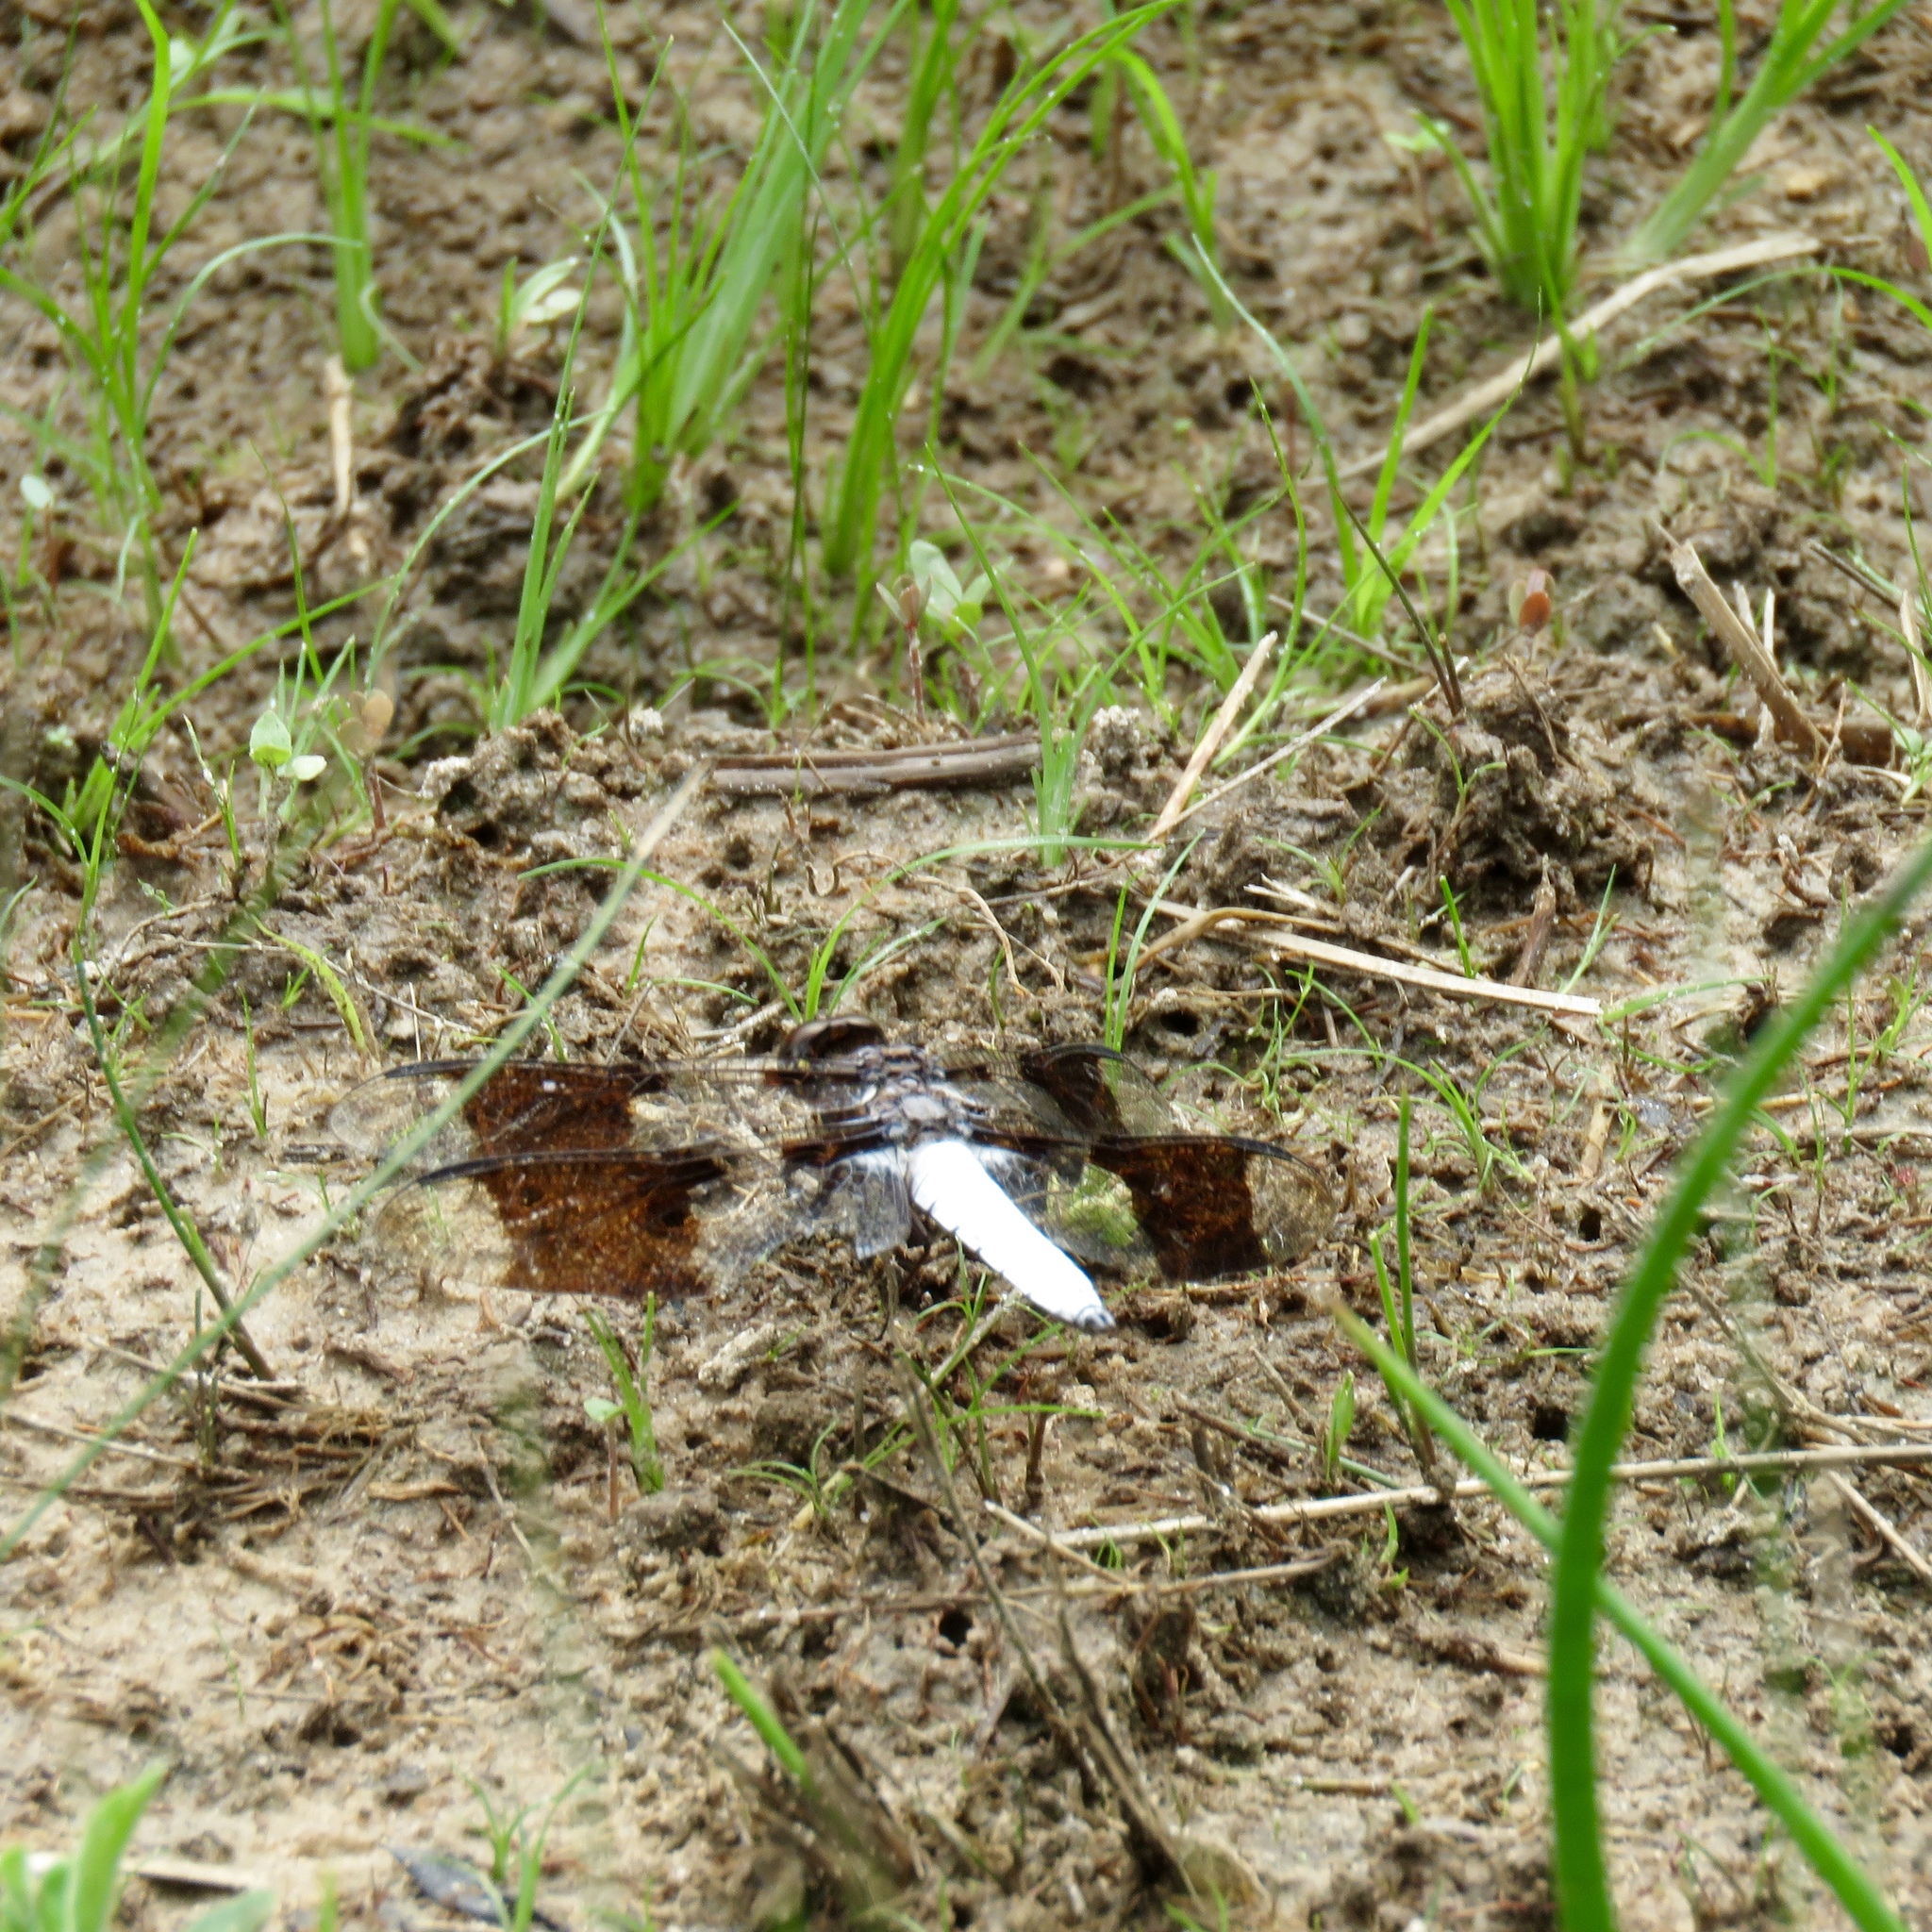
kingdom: Animalia
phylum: Arthropoda
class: Insecta
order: Odonata
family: Libellulidae
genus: Plathemis
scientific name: Plathemis lydia
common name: Common whitetail
